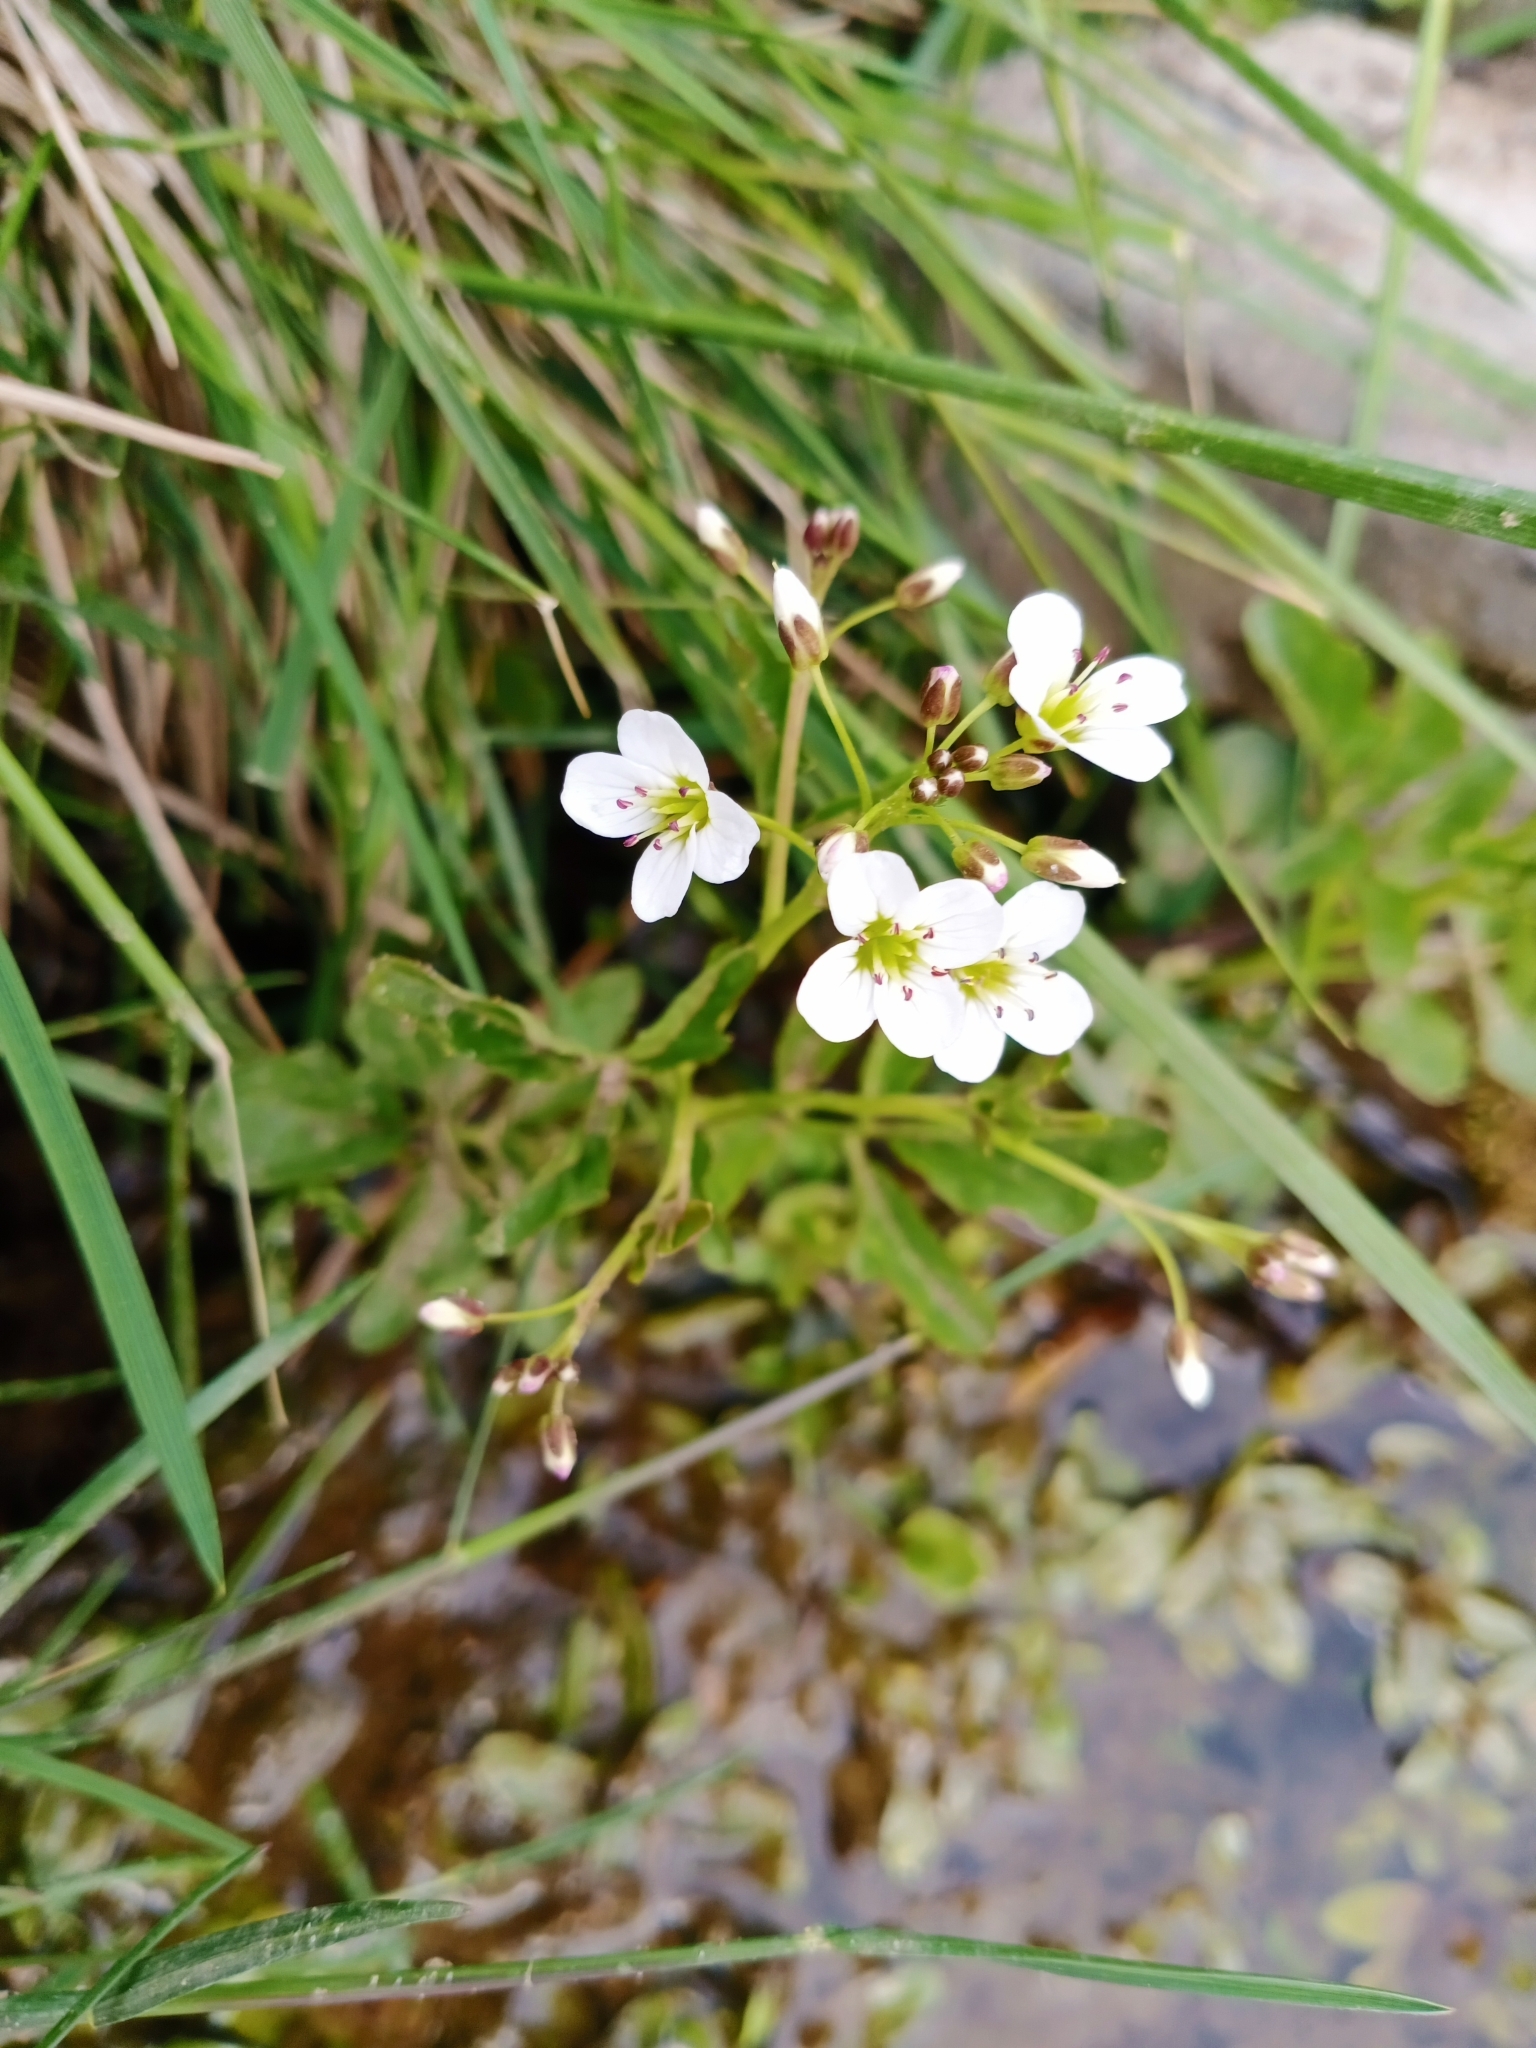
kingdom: Plantae
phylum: Tracheophyta
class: Magnoliopsida
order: Brassicales
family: Brassicaceae
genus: Cardamine
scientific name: Cardamine amara
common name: Large bitter-cress
